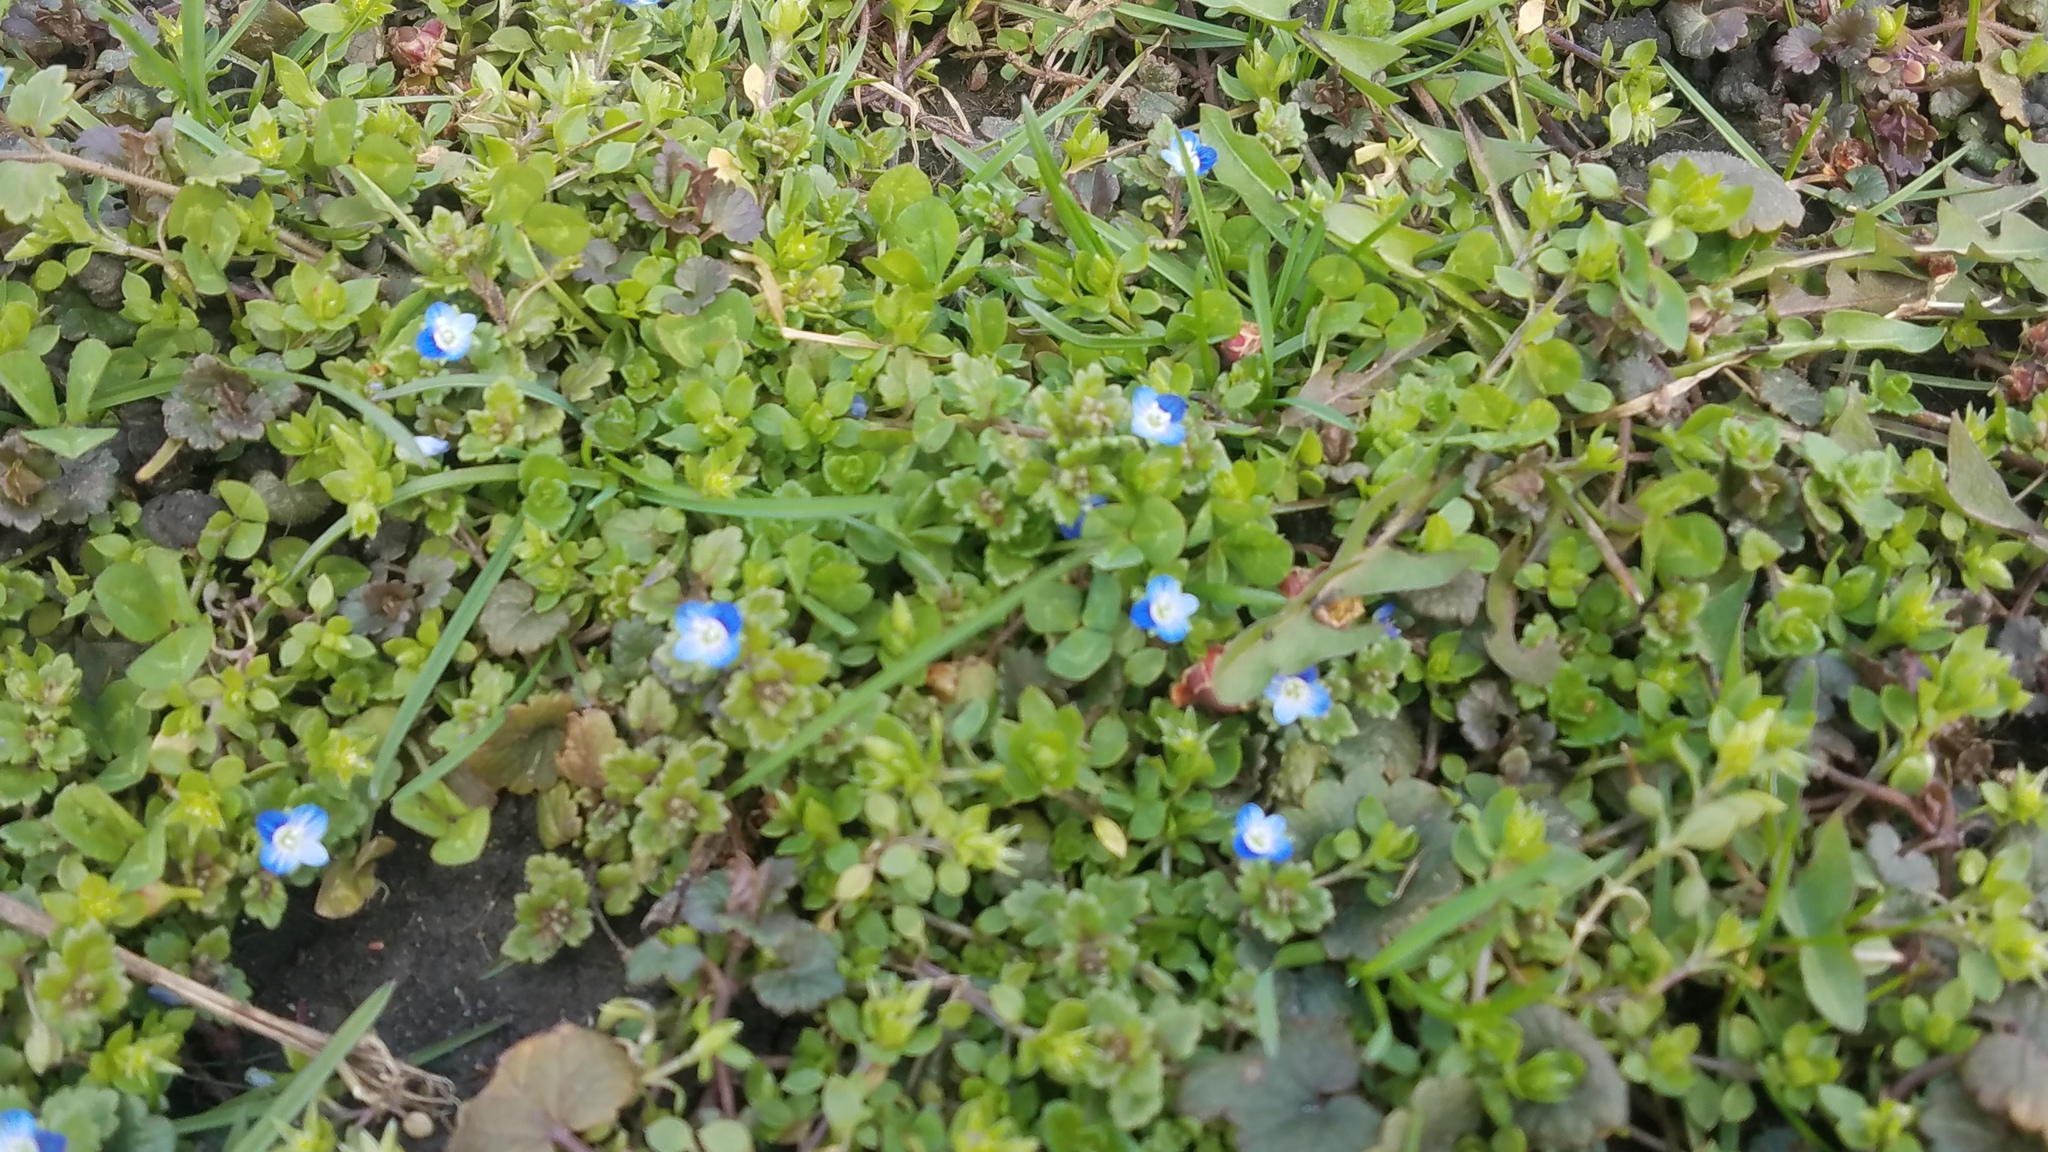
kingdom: Plantae
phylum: Tracheophyta
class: Magnoliopsida
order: Lamiales
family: Plantaginaceae
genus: Veronica
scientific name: Veronica polita
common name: Grey field-speedwell
